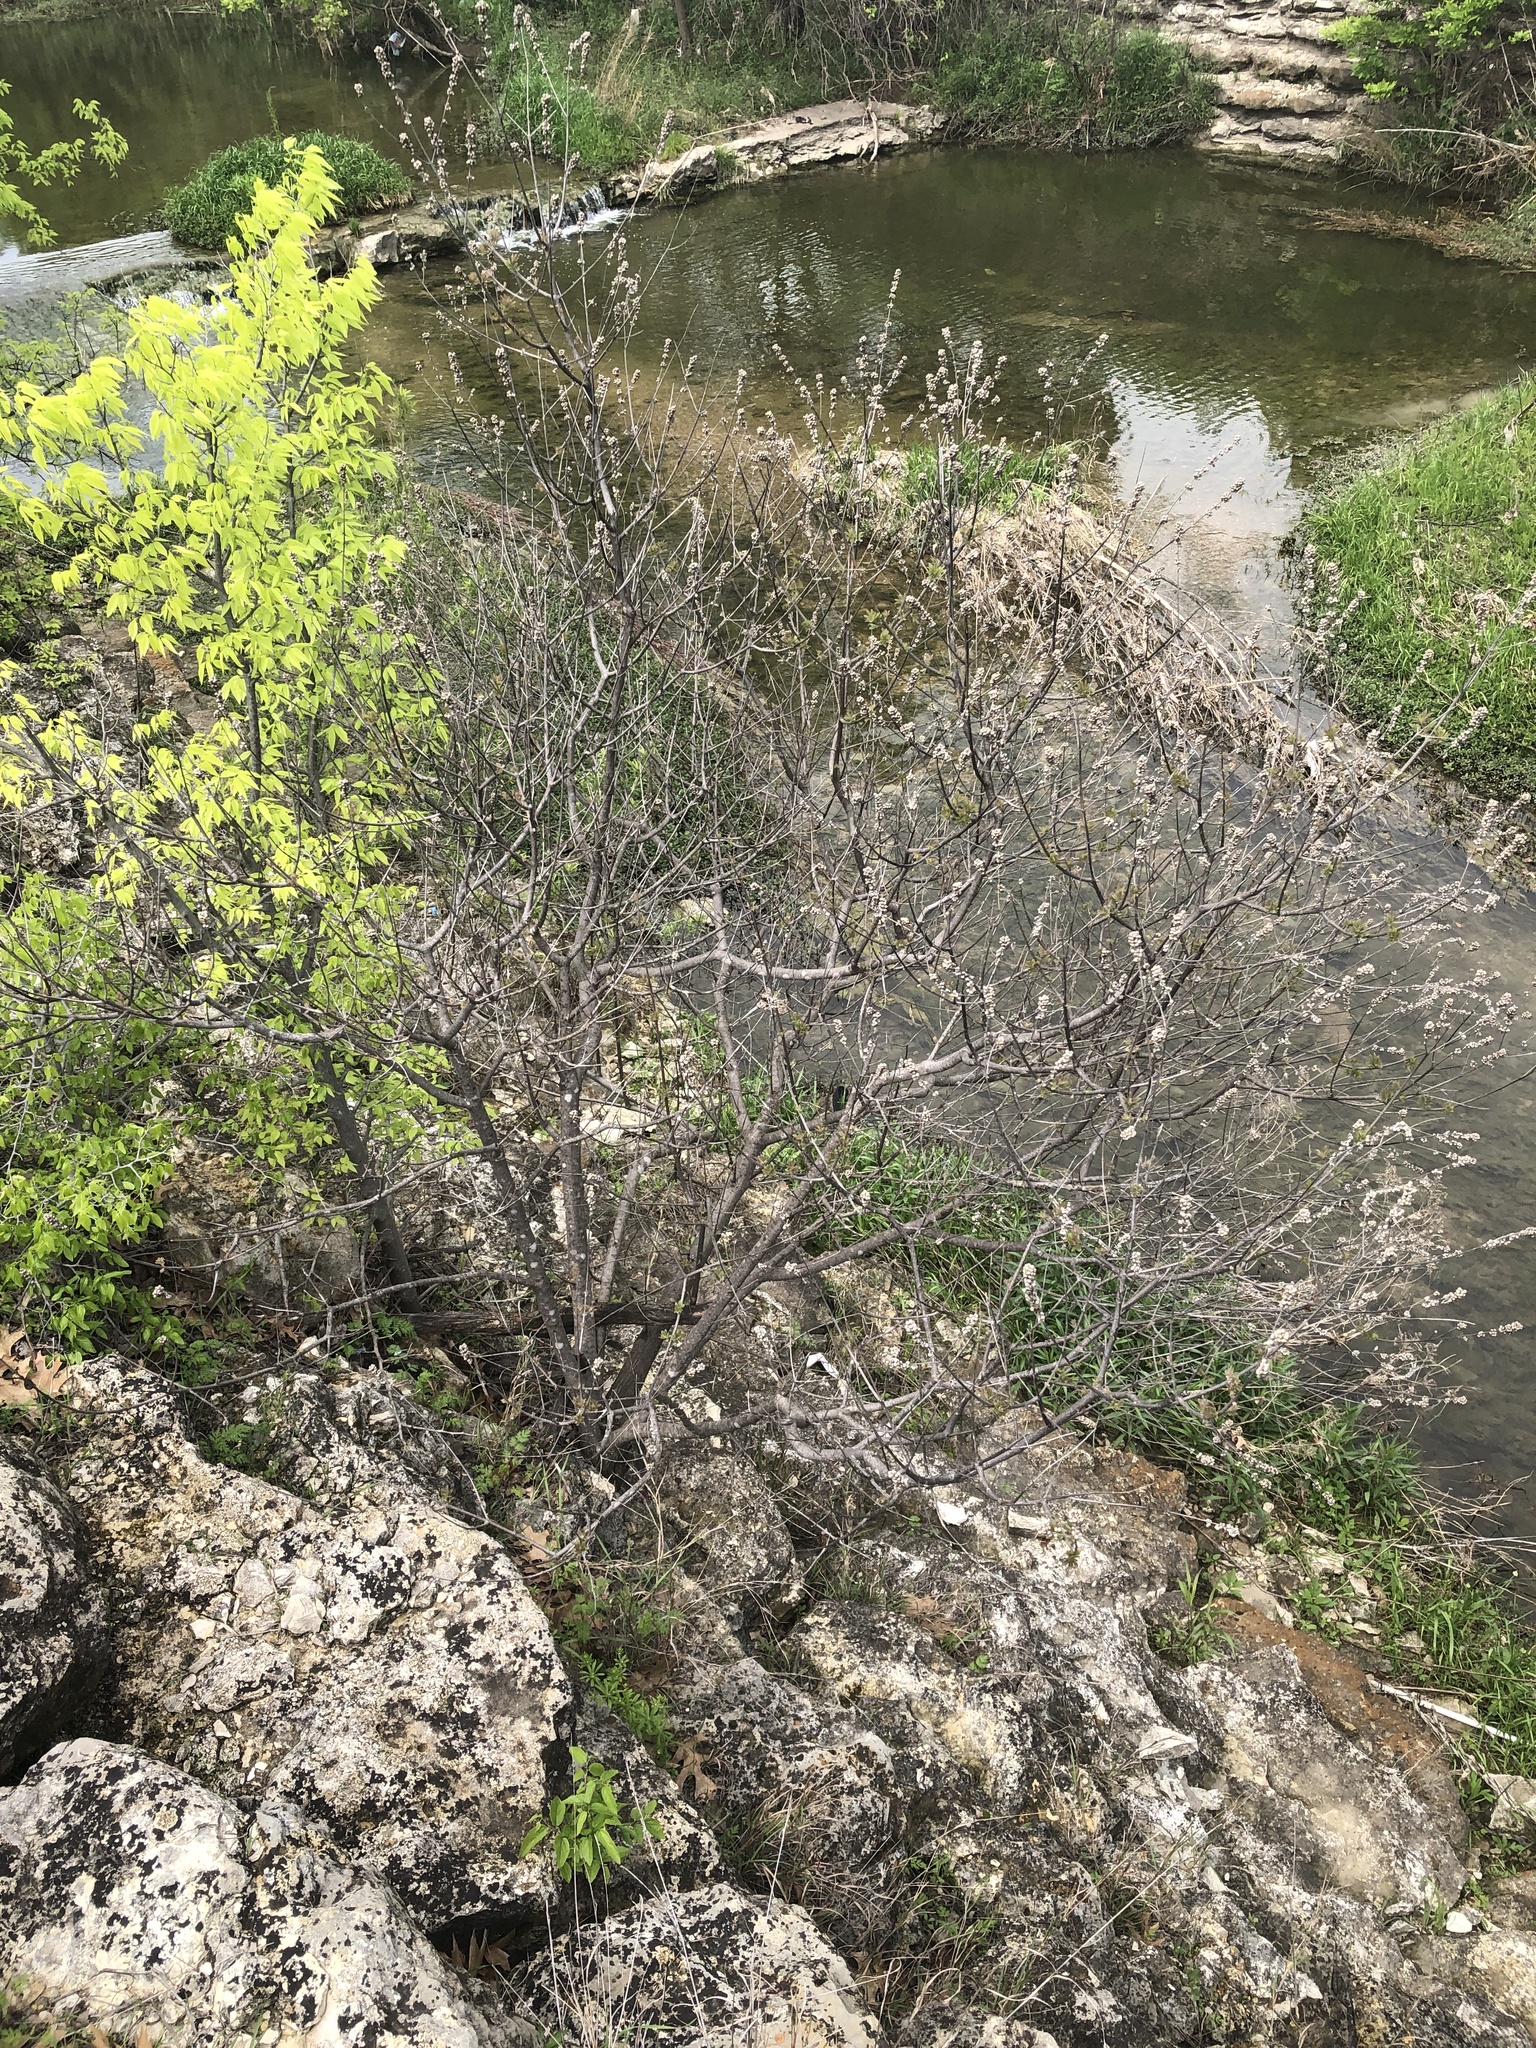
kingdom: Plantae
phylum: Tracheophyta
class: Magnoliopsida
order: Lamiales
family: Lamiaceae
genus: Vitex
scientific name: Vitex agnus-castus
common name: Chasteberry
